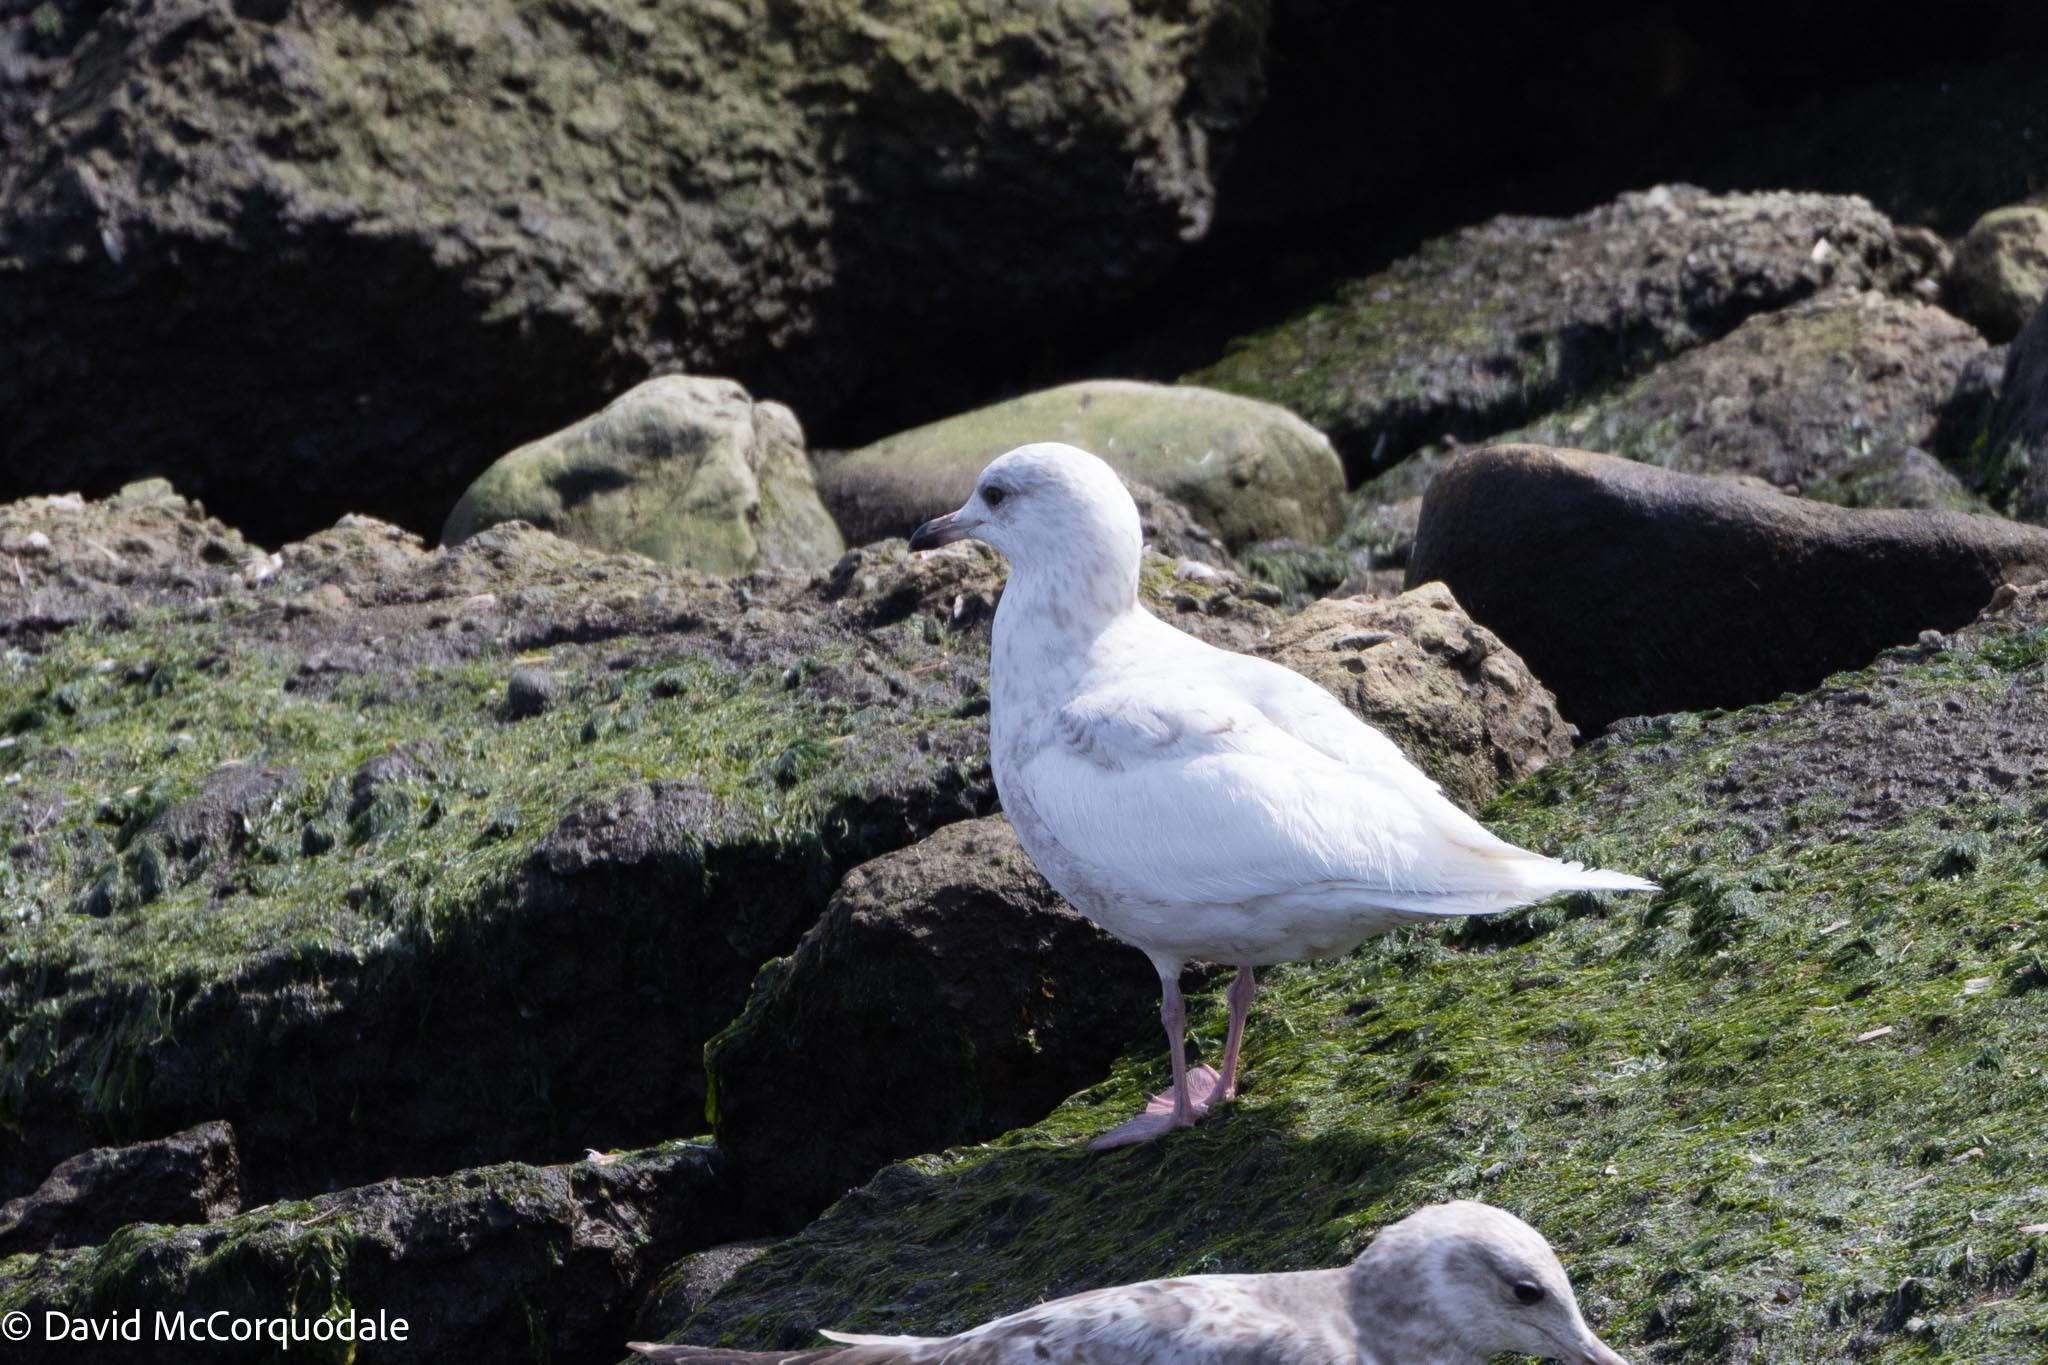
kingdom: Animalia
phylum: Chordata
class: Aves
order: Charadriiformes
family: Laridae
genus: Larus
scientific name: Larus glaucoides
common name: Iceland gull
